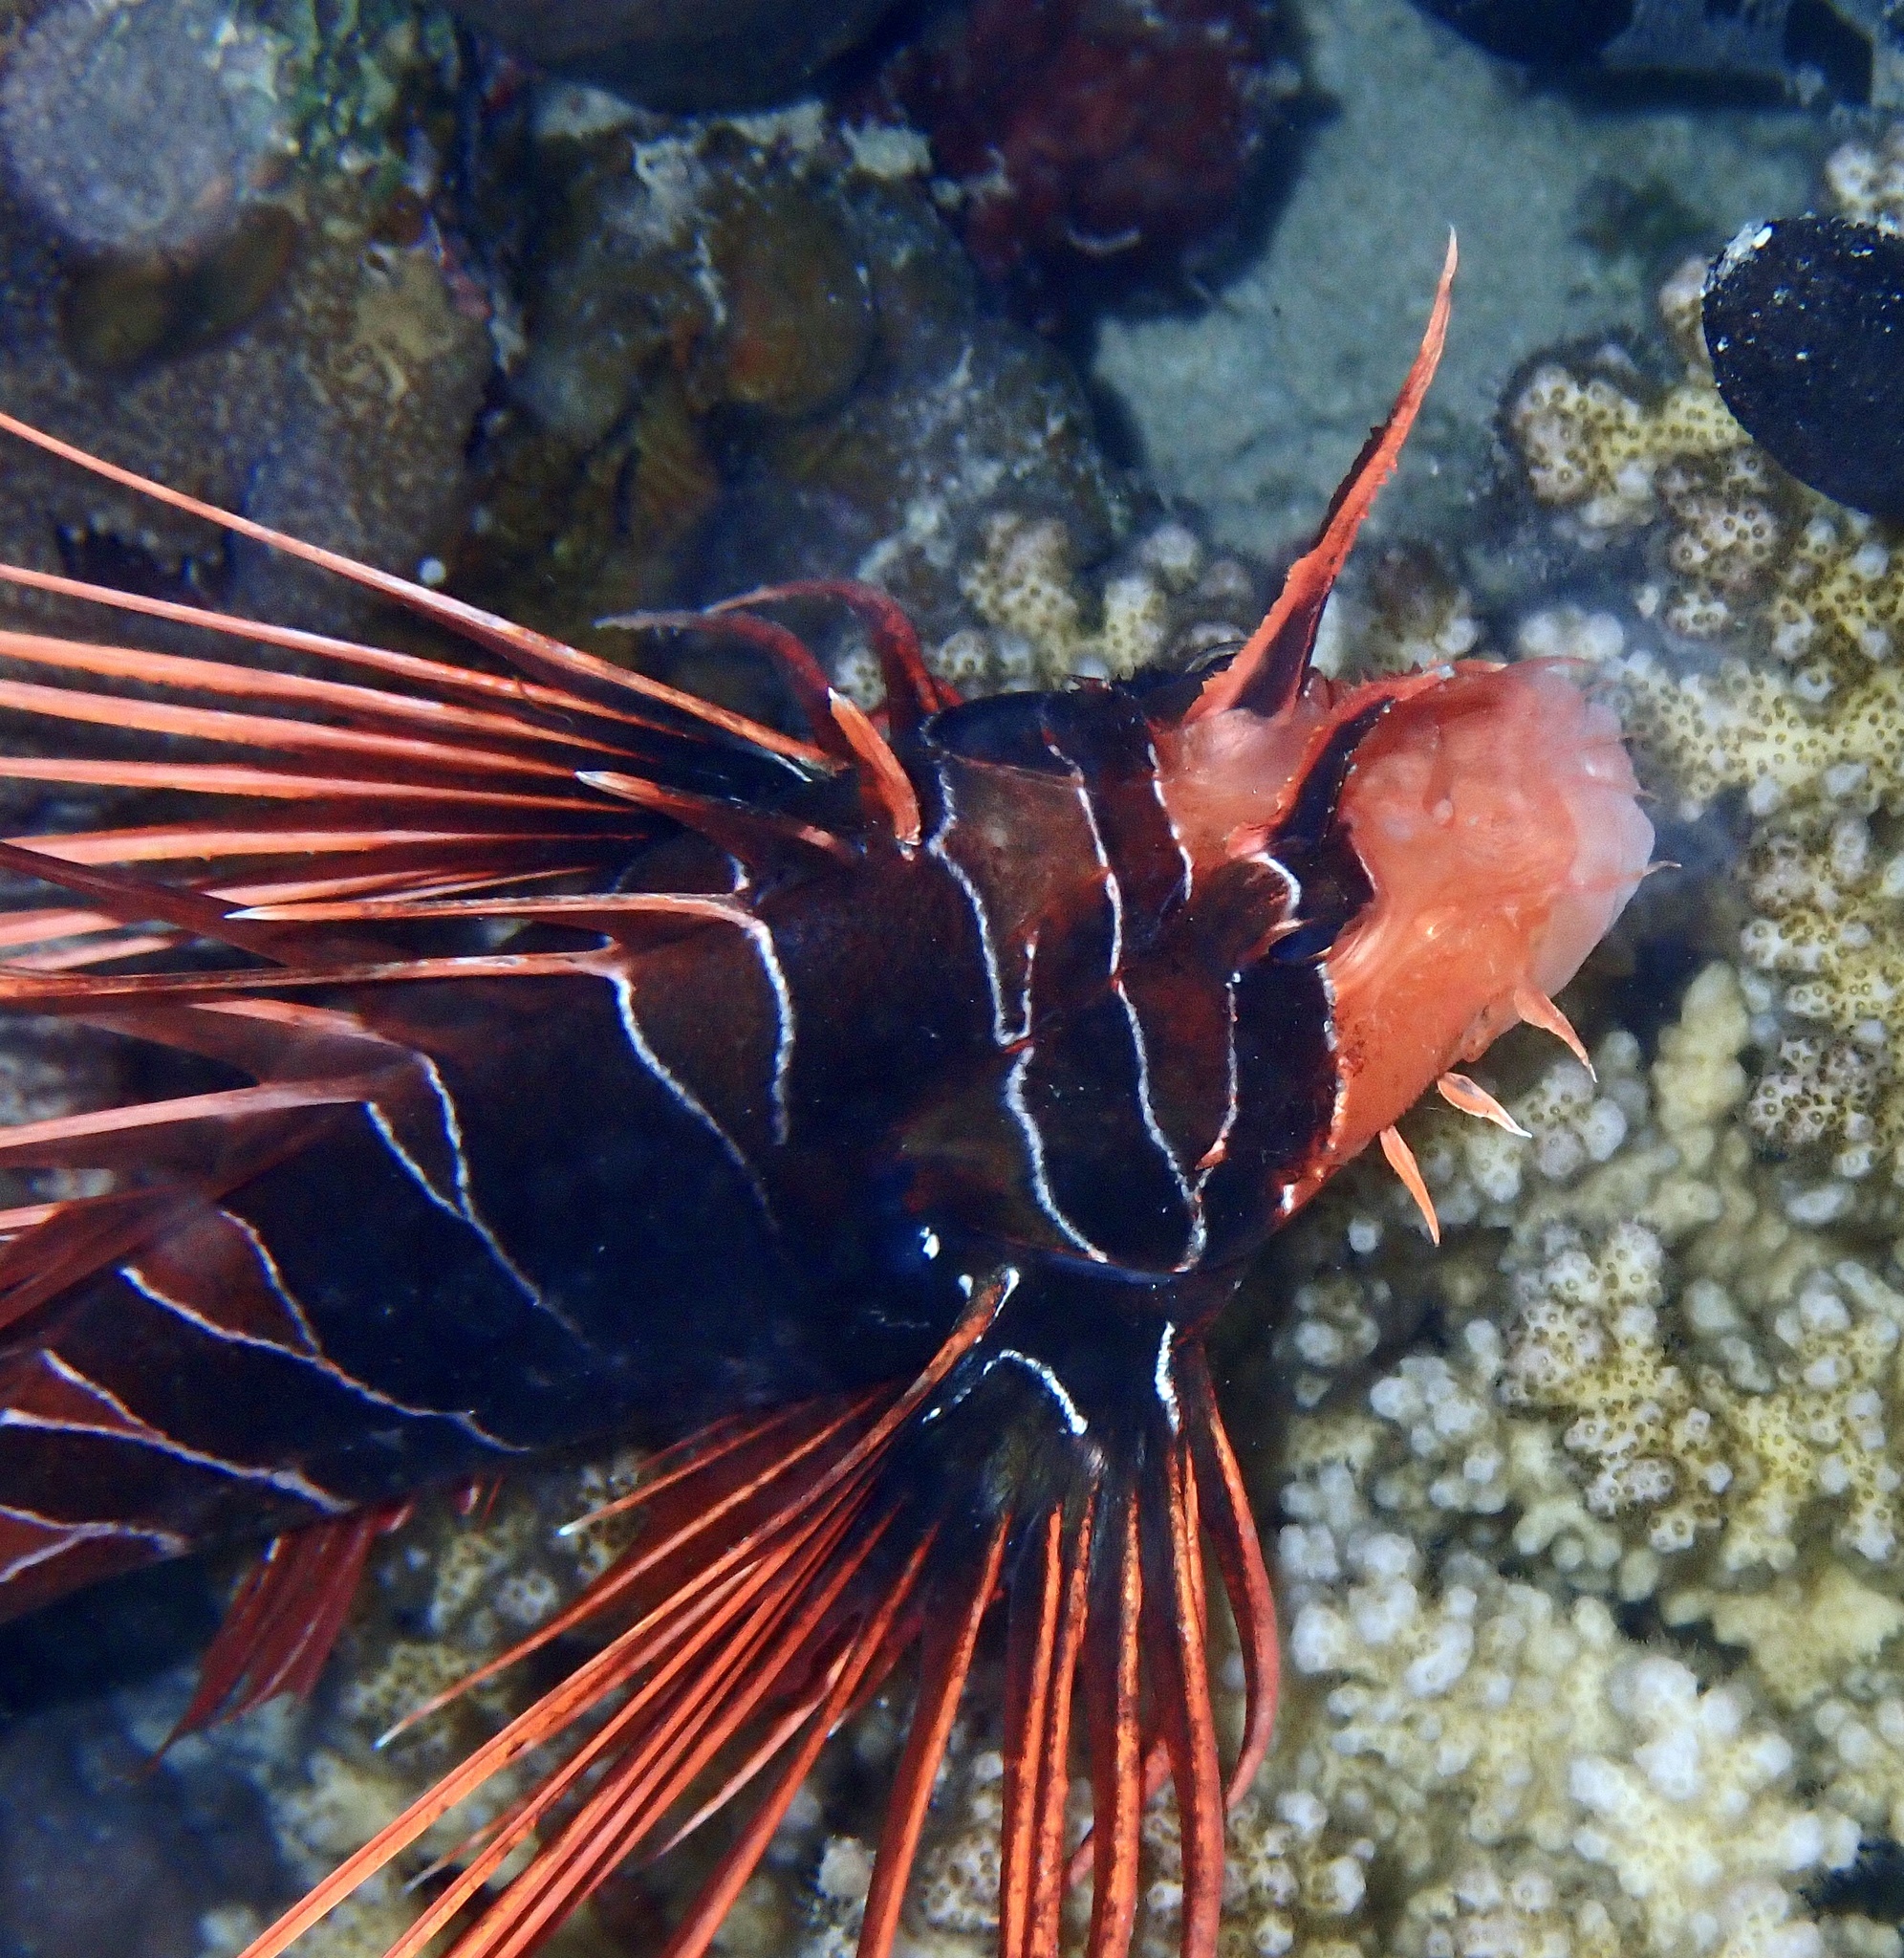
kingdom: Animalia
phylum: Chordata
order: Scorpaeniformes
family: Scorpaenidae
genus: Pterois
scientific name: Pterois cincta
